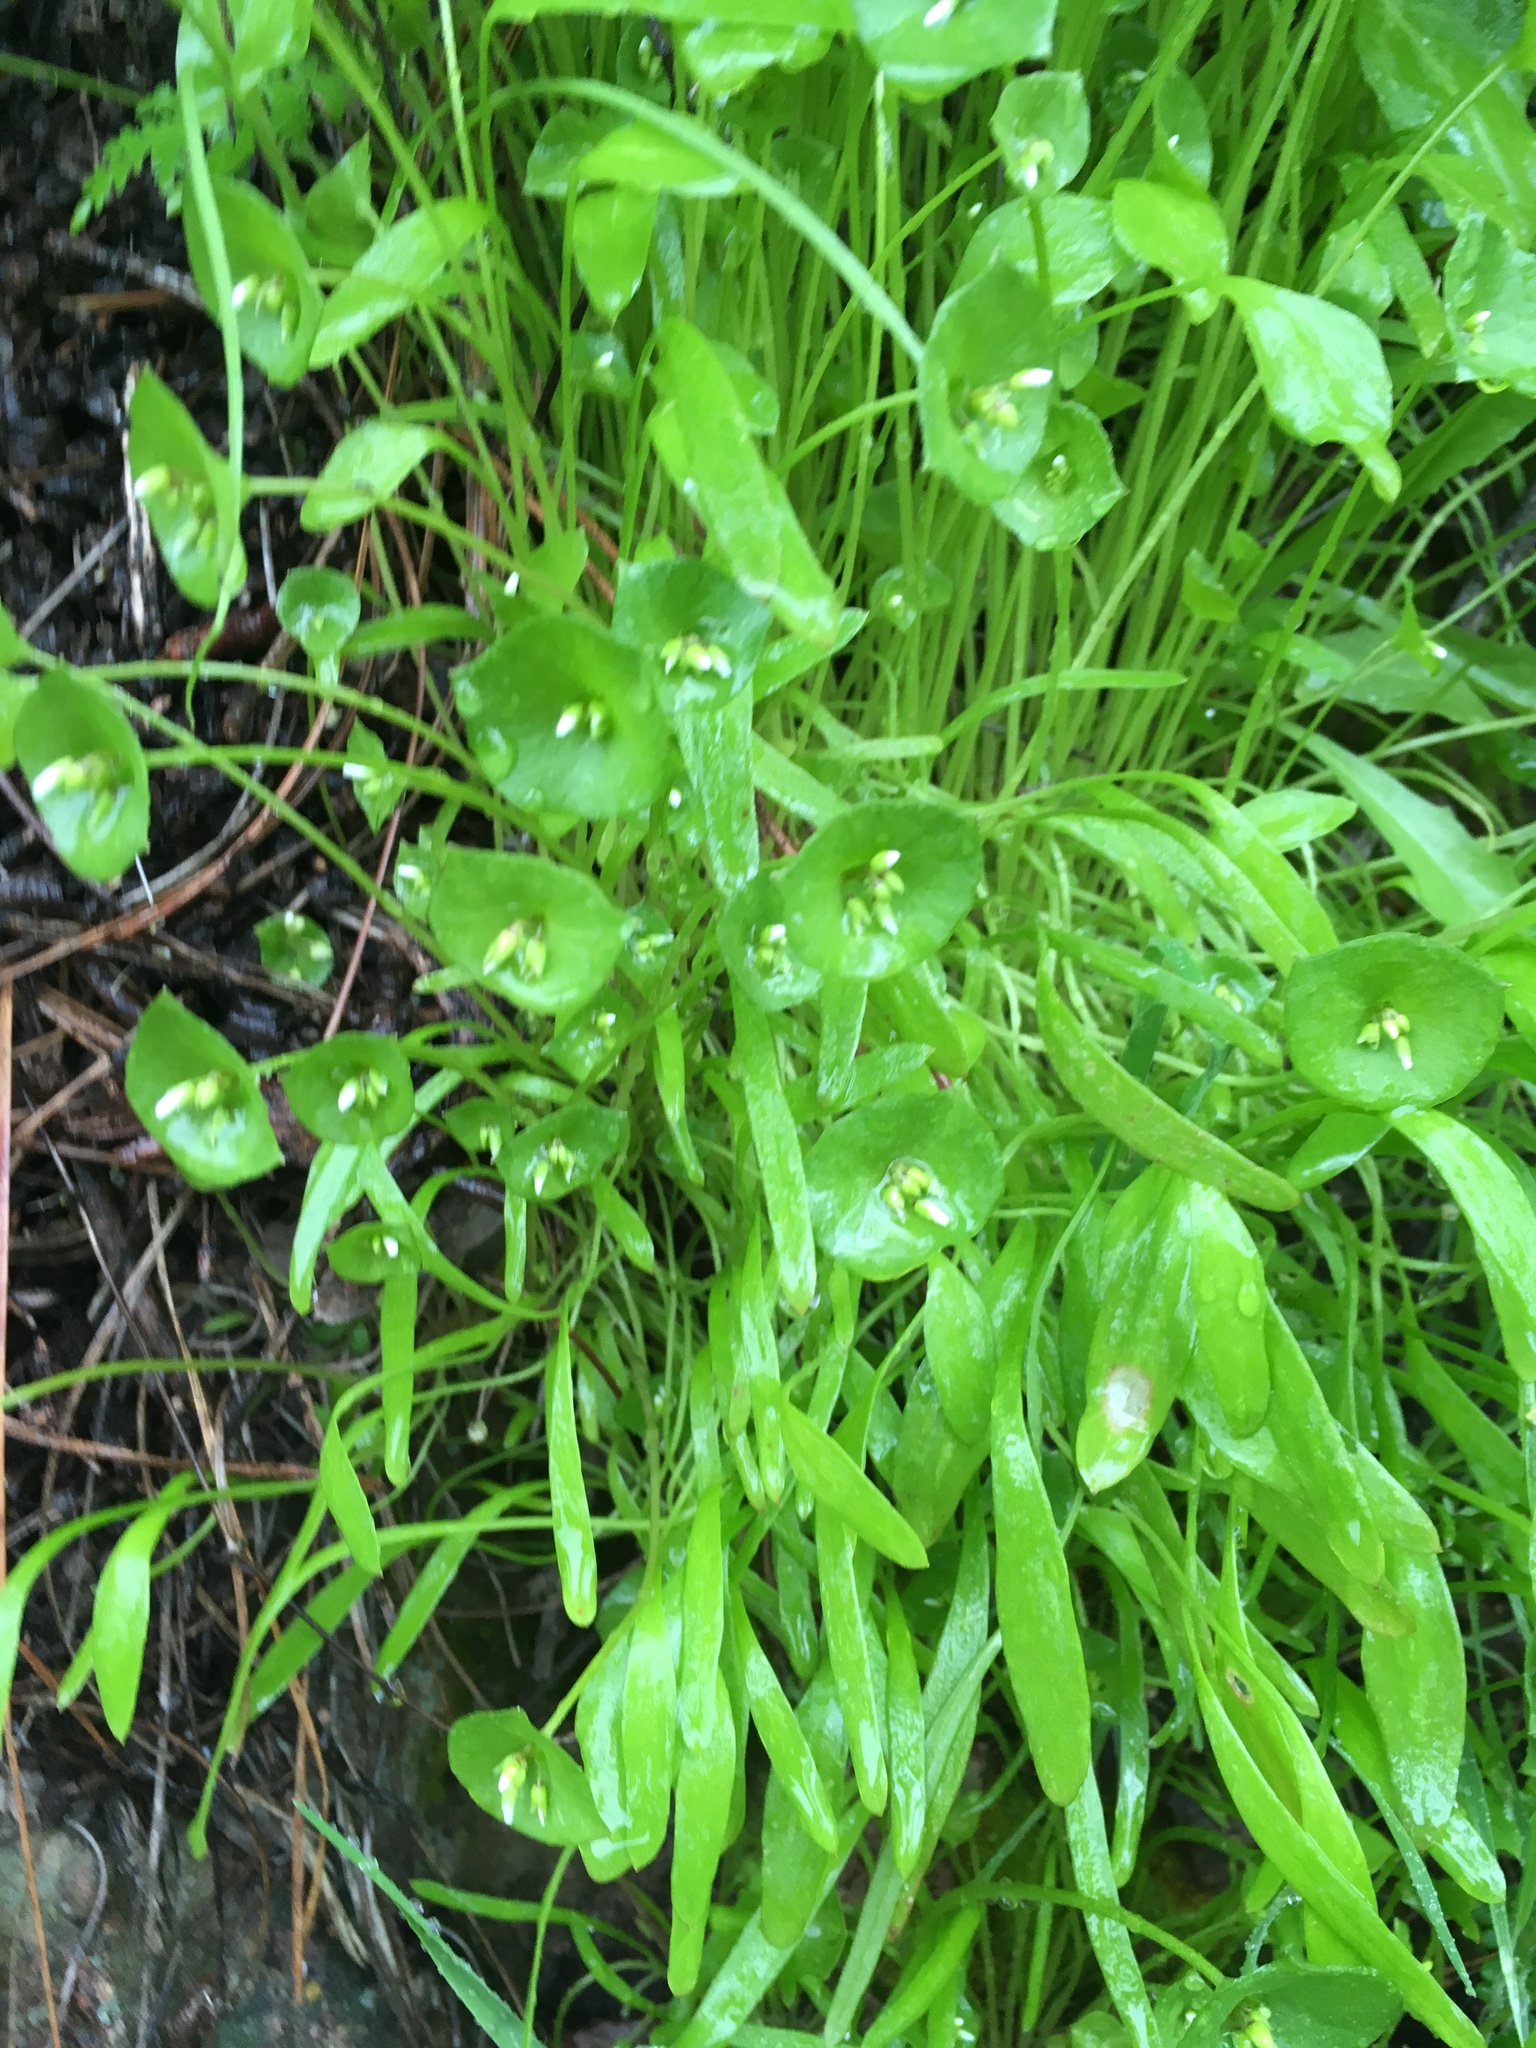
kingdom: Plantae
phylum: Tracheophyta
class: Magnoliopsida
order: Caryophyllales
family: Montiaceae
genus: Claytonia
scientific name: Claytonia parviflora
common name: Indian-lettuce
